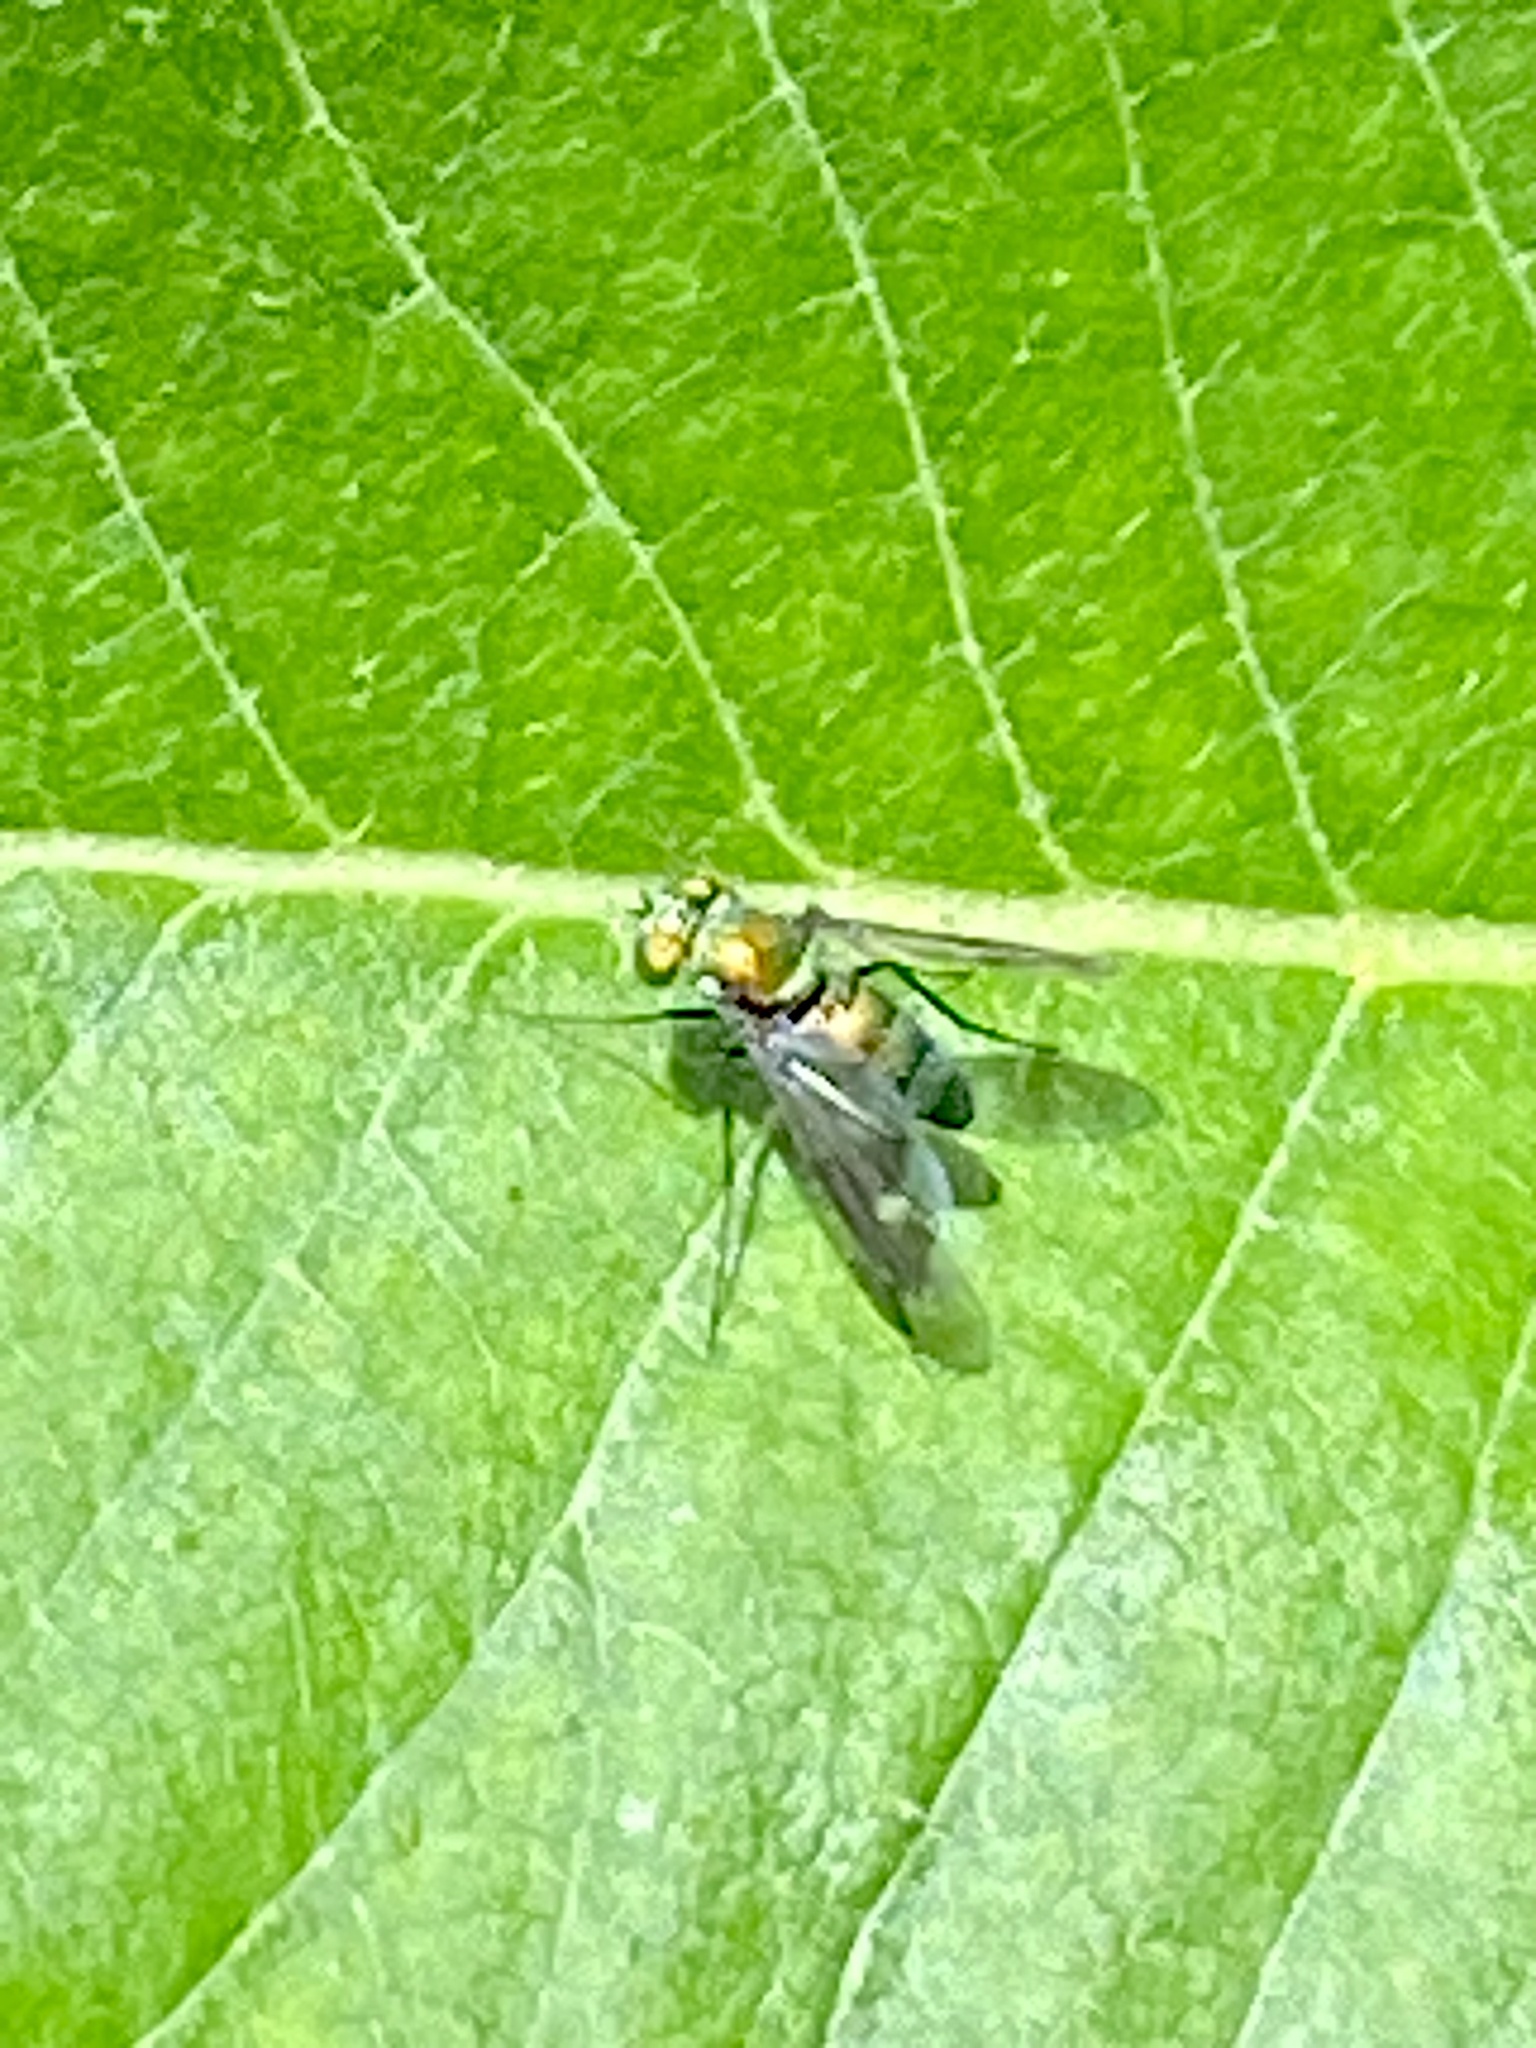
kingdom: Animalia
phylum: Arthropoda
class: Insecta
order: Diptera
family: Dolichopodidae
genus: Condylostylus
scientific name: Condylostylus patibulatus
